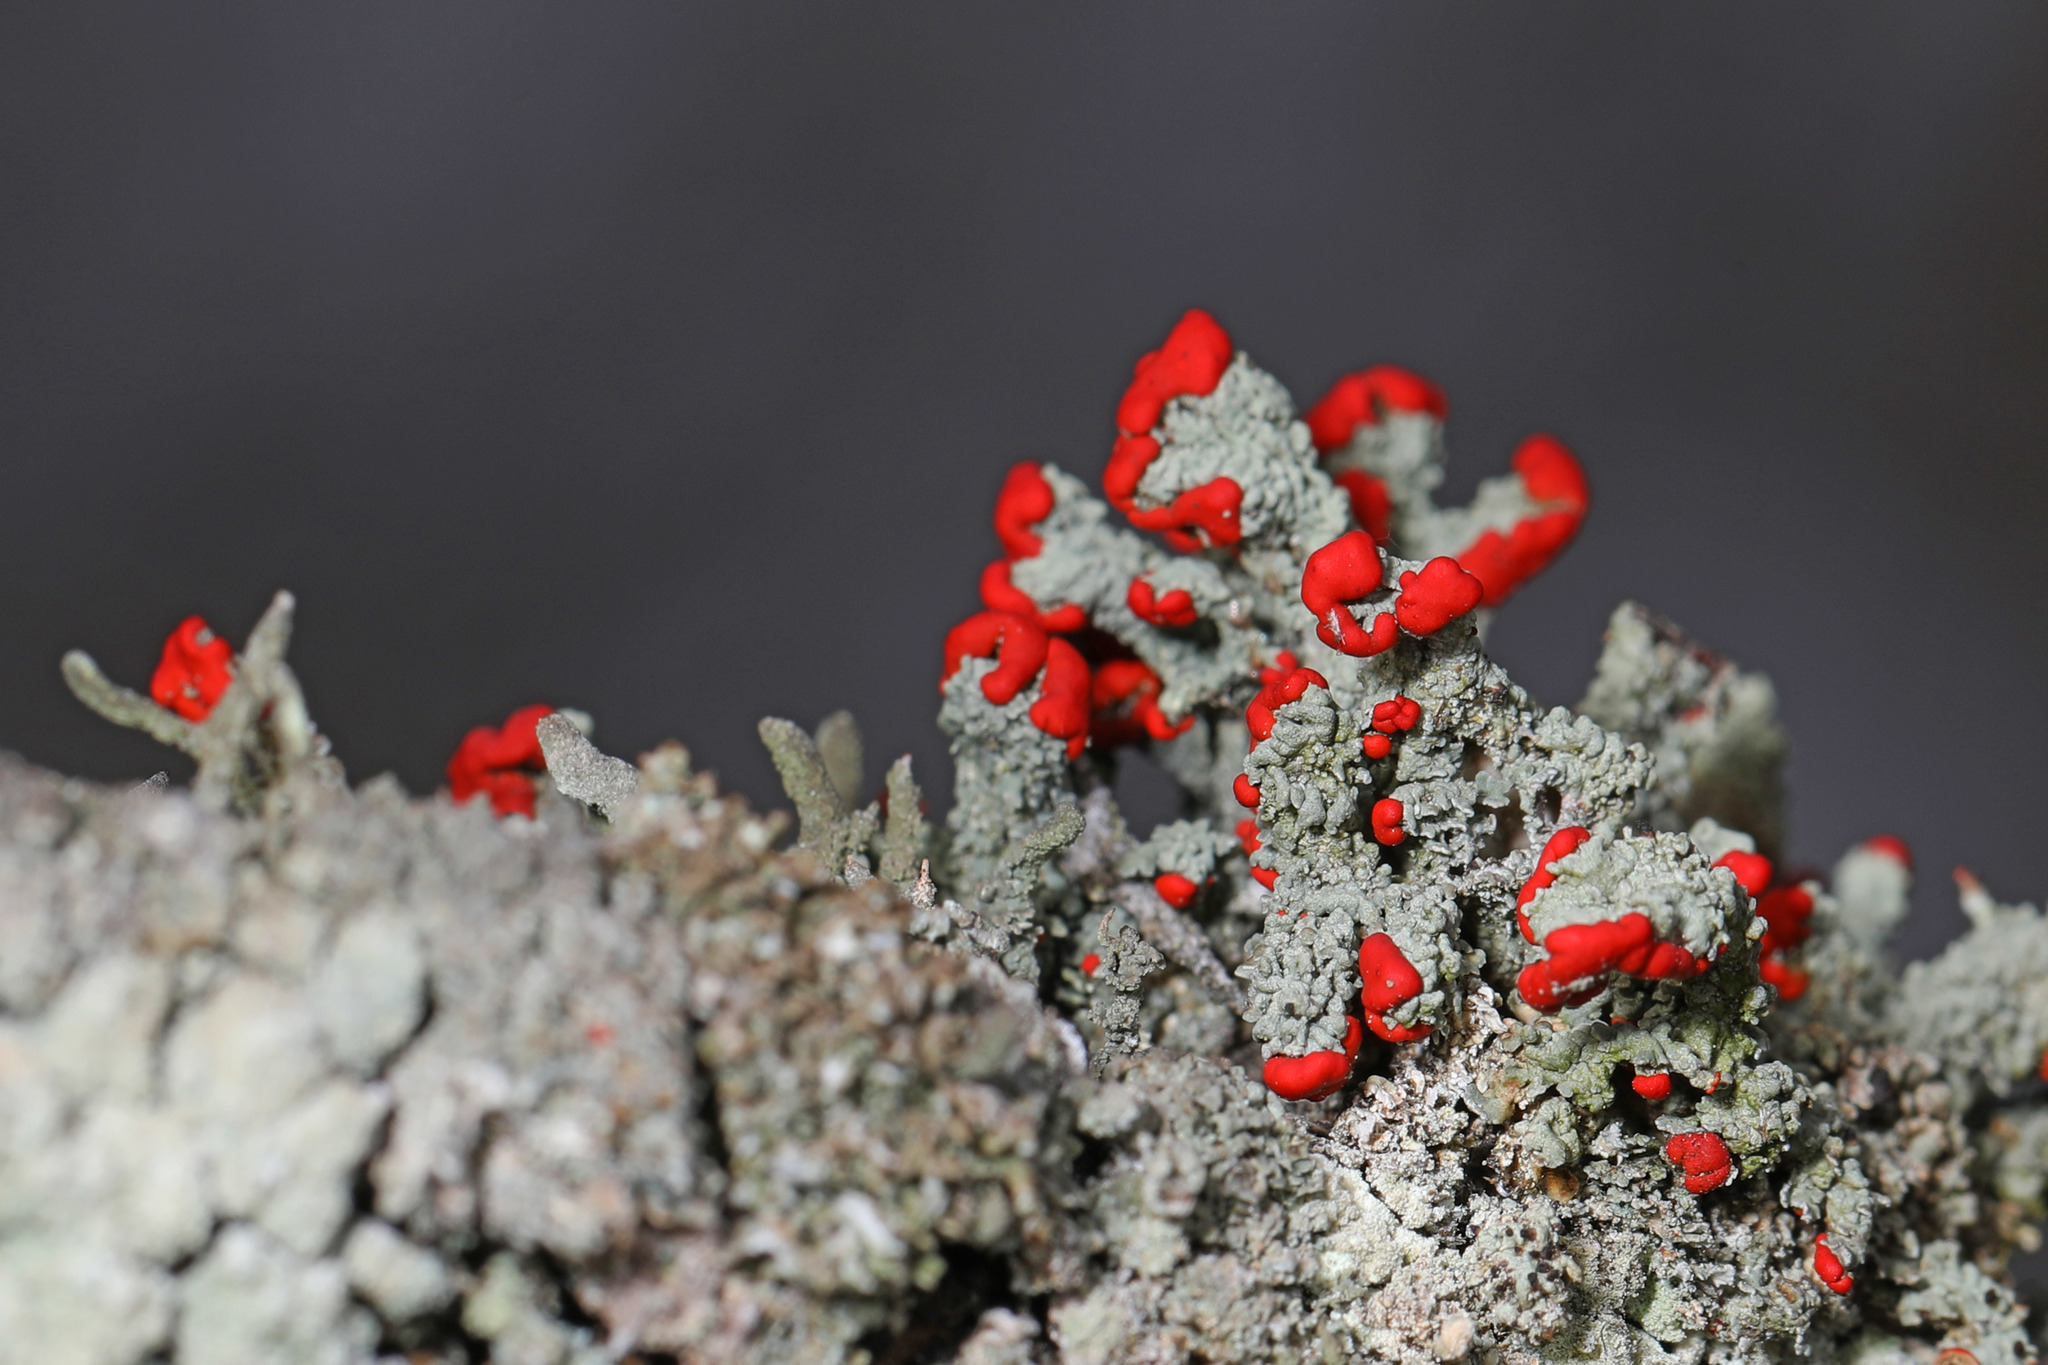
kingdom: Fungi
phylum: Ascomycota
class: Lecanoromycetes
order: Lecanorales
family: Cladoniaceae
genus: Cladonia
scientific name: Cladonia cristatella
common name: British soldier lichen
